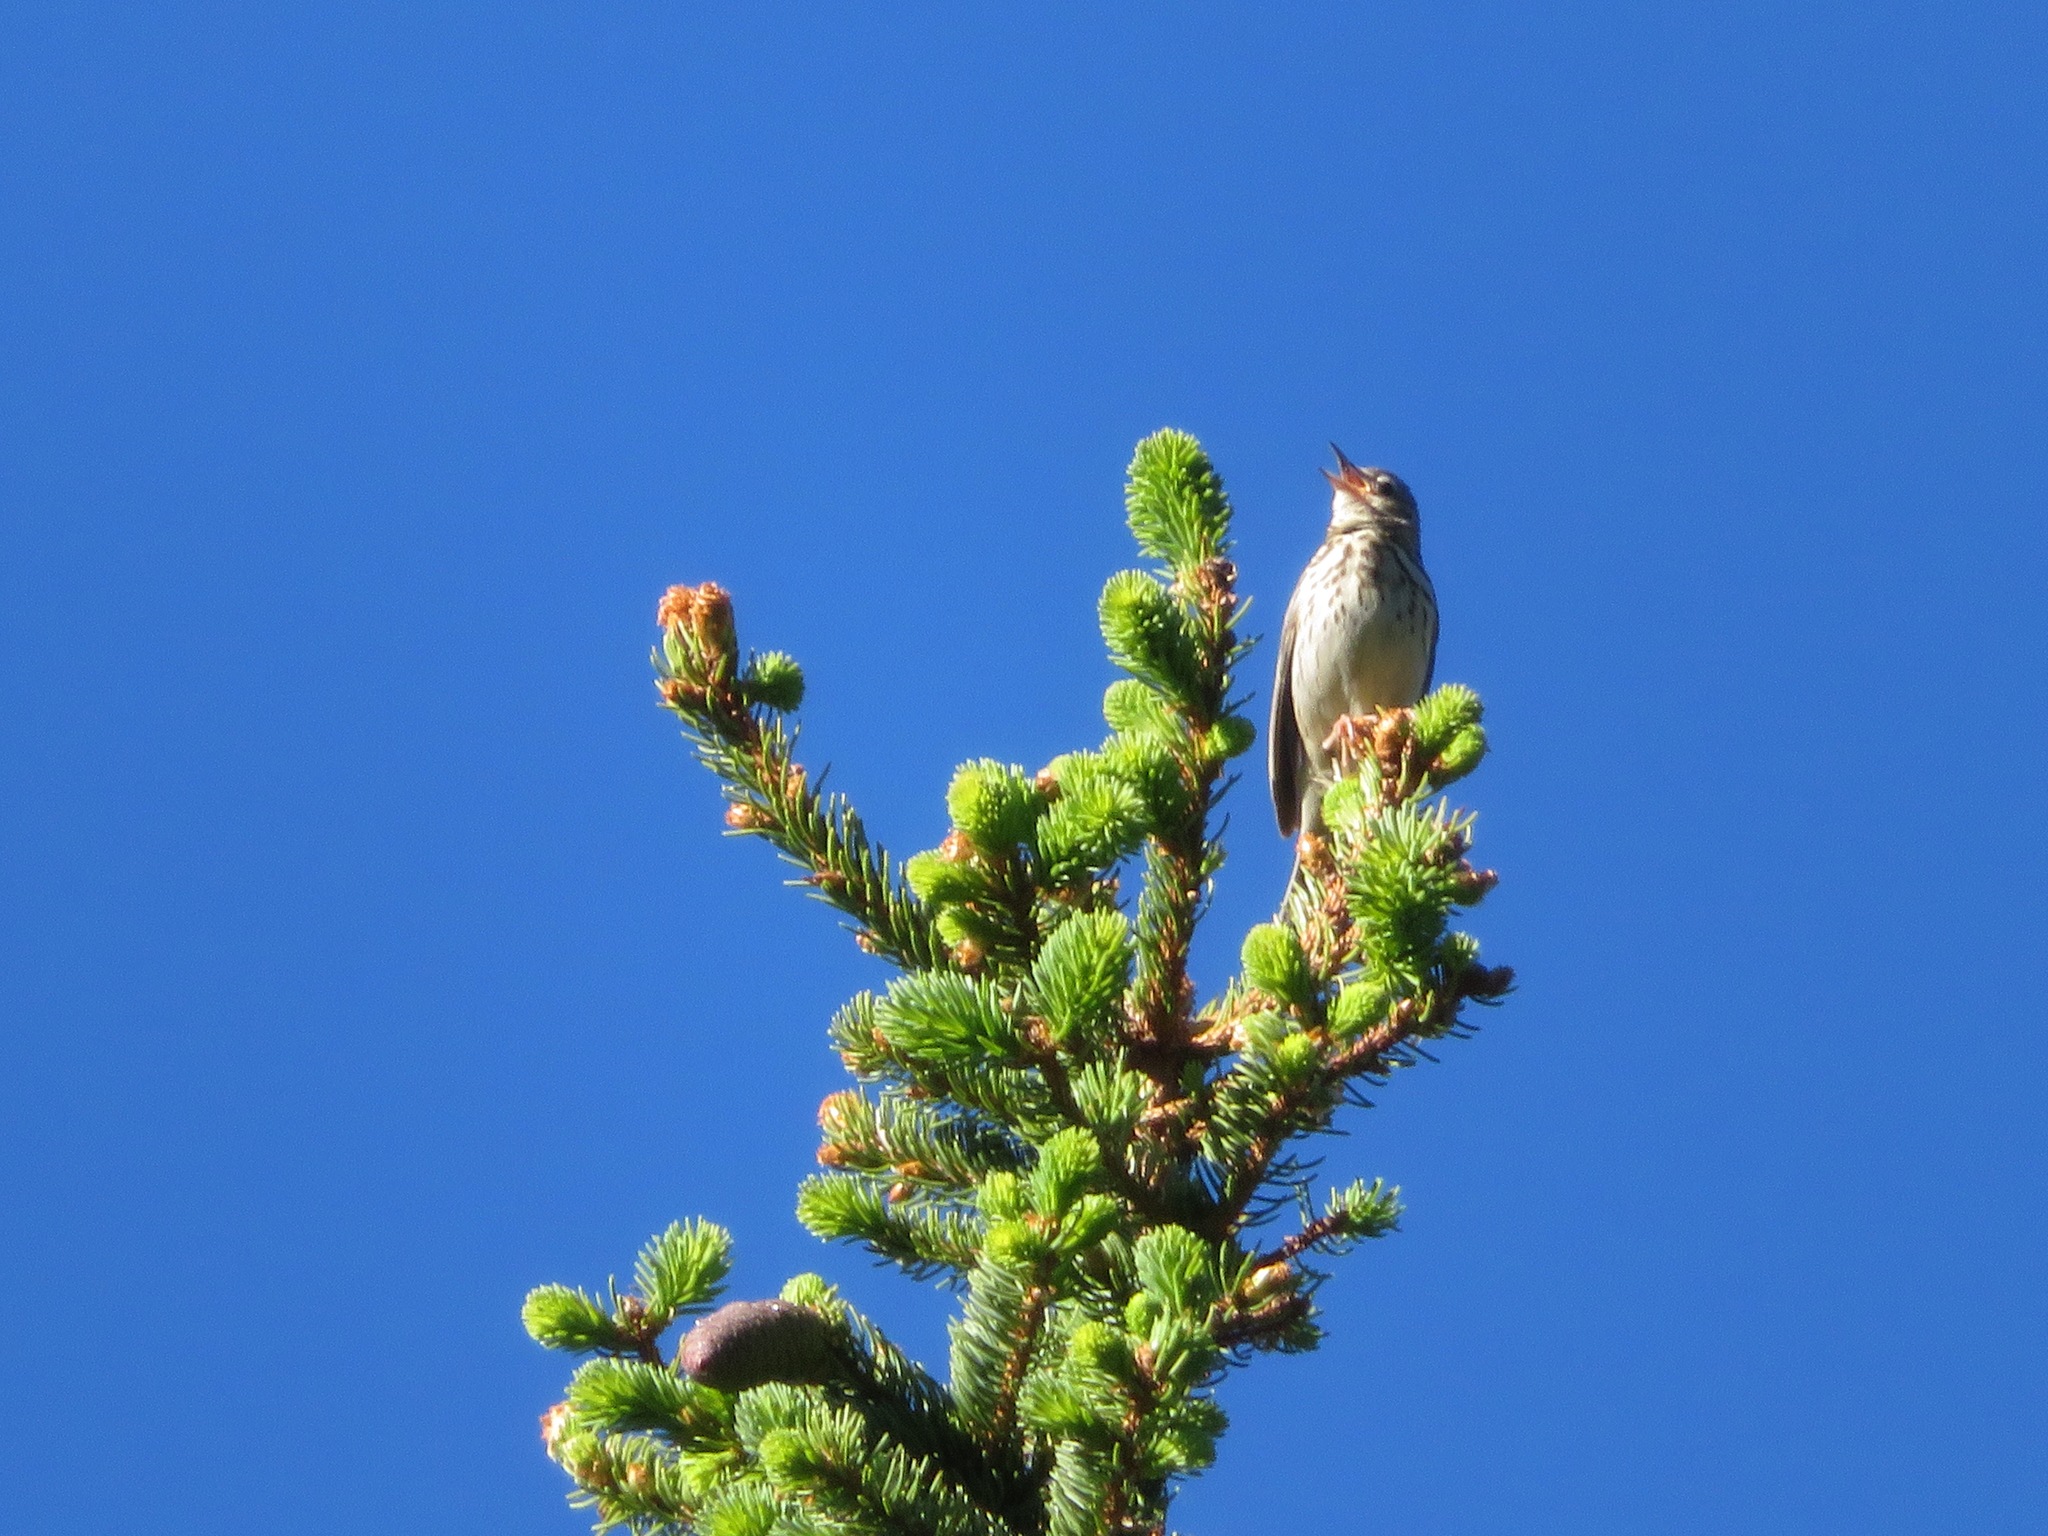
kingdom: Animalia
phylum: Chordata
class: Aves
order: Passeriformes
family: Motacillidae
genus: Anthus
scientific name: Anthus trivialis
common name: Tree pipit
